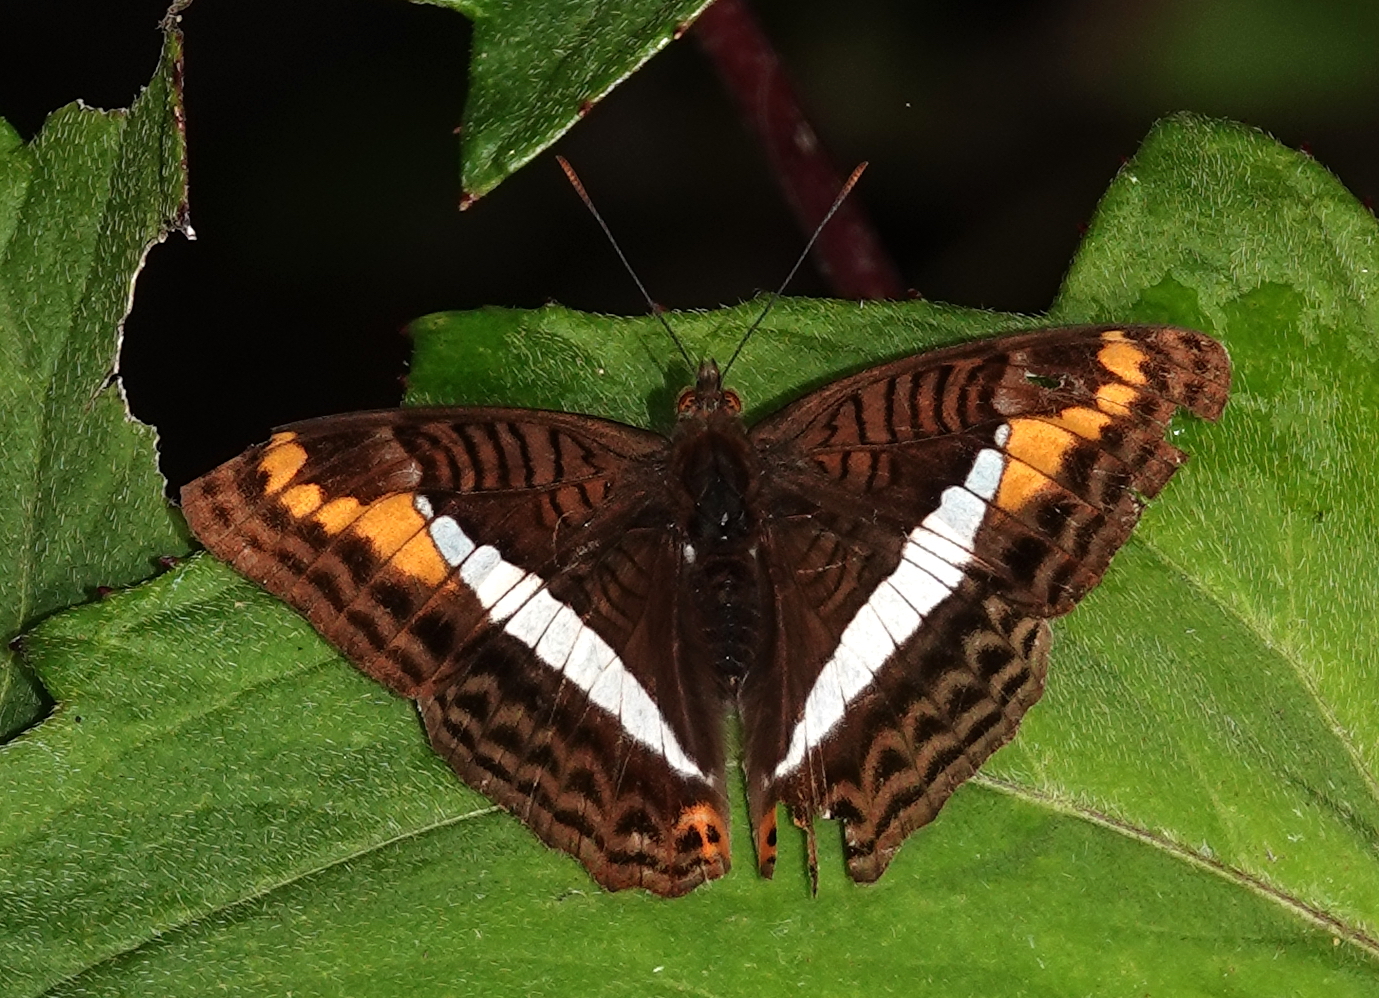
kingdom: Animalia
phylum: Arthropoda
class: Insecta
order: Lepidoptera
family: Nymphalidae
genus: Limenitis
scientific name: Limenitis corcyra
